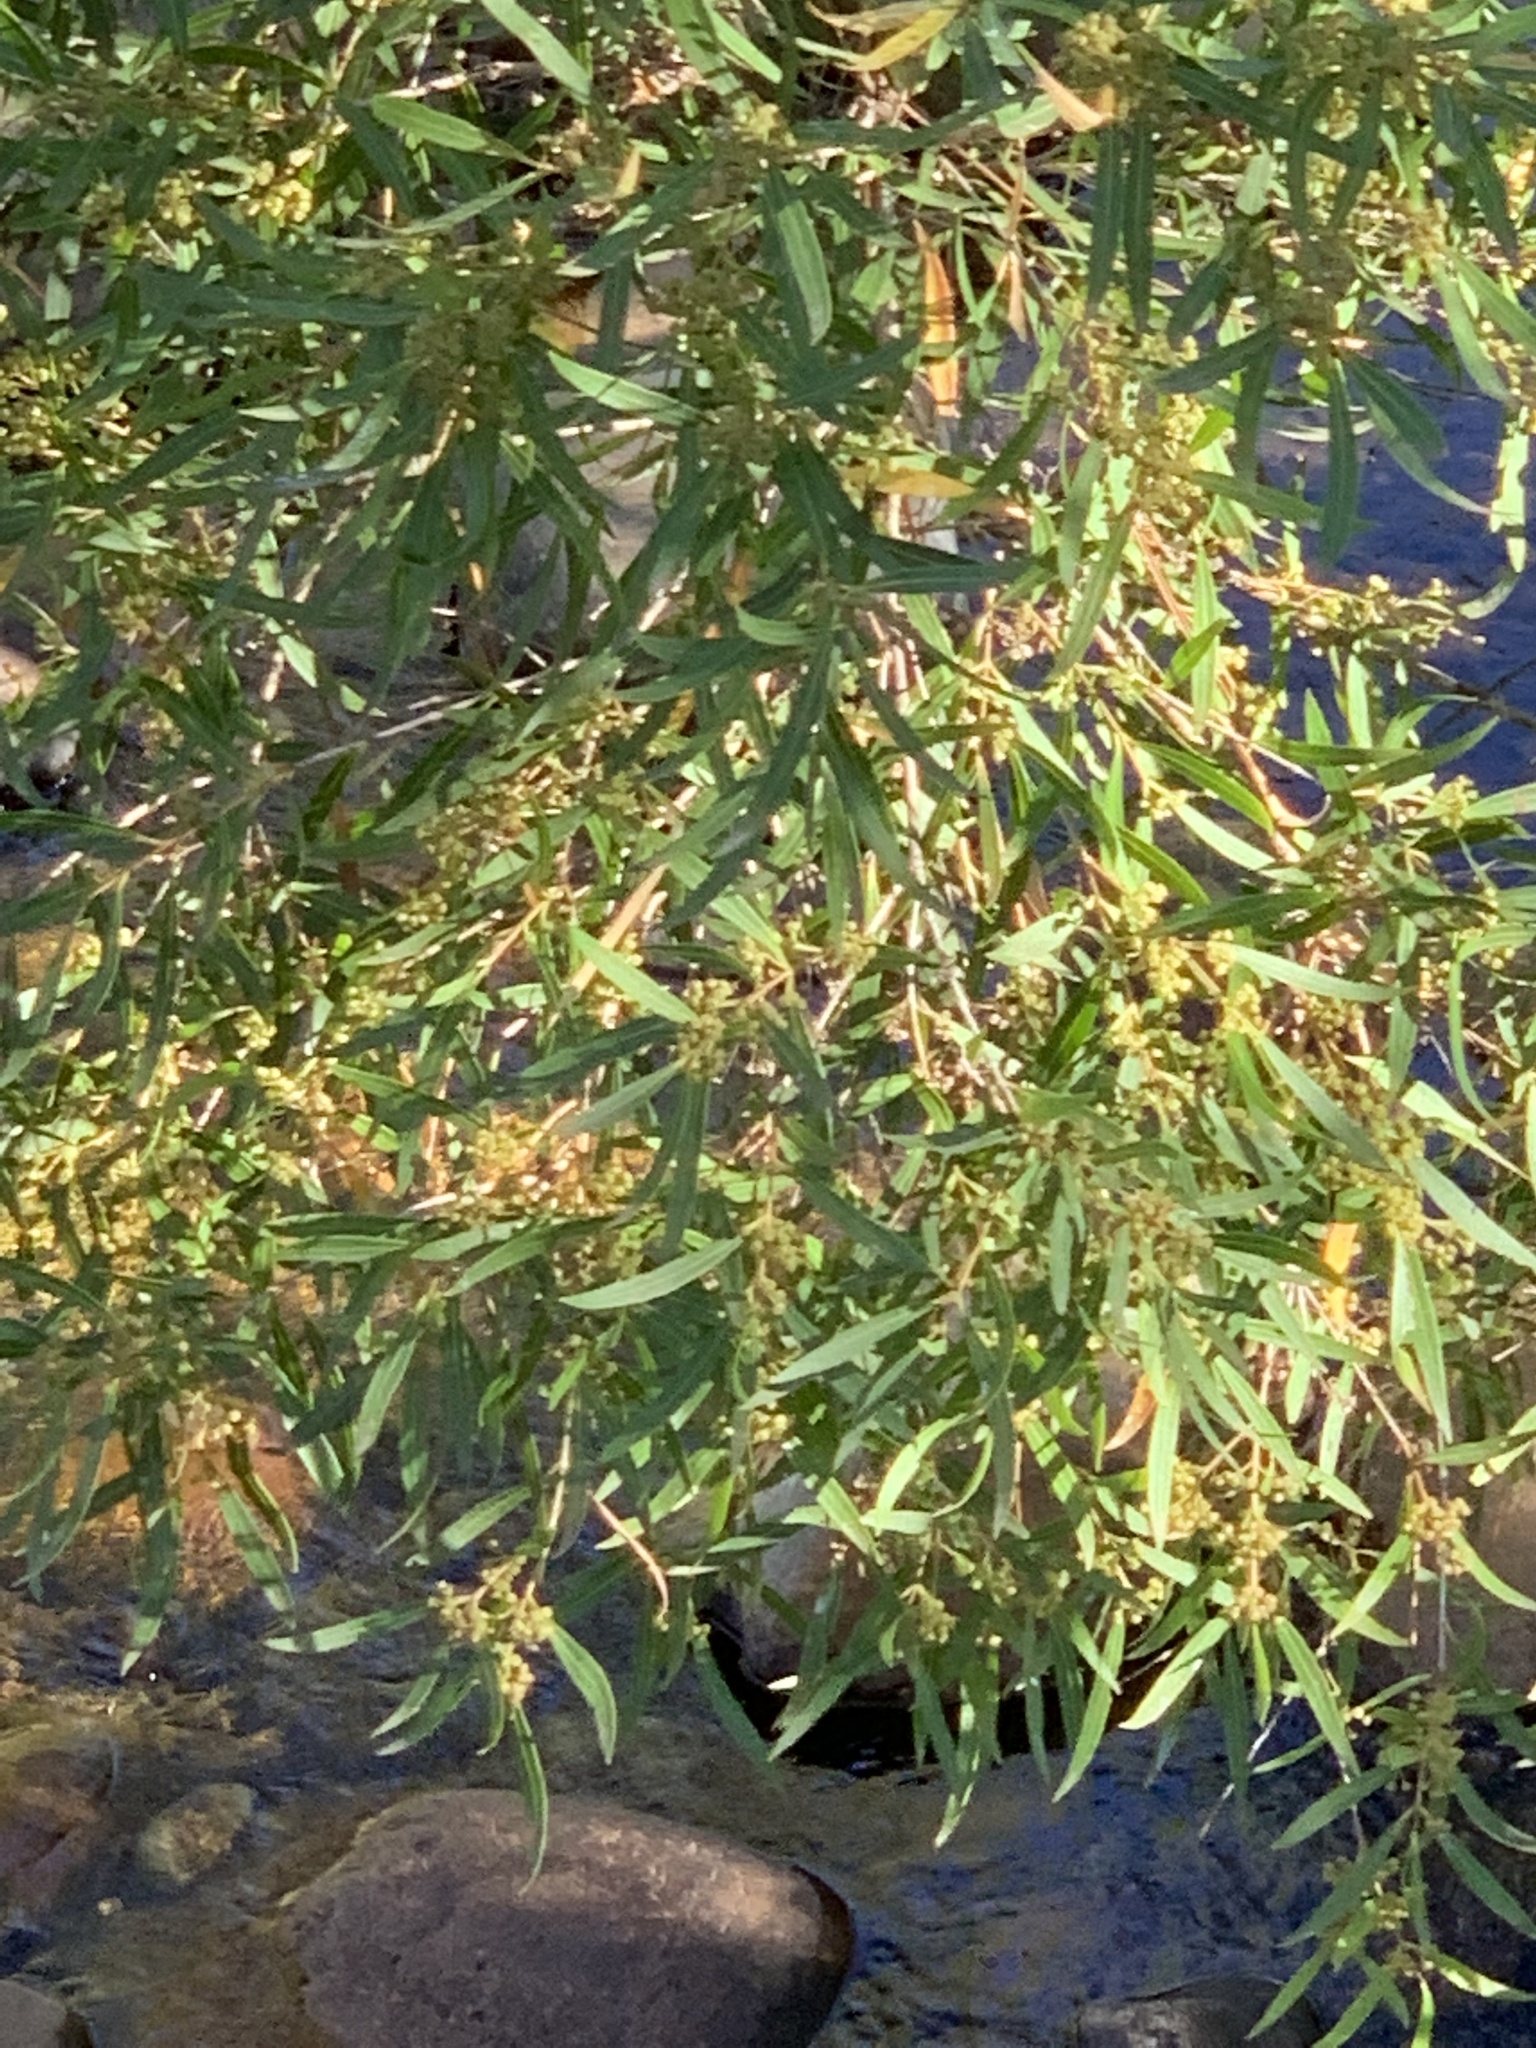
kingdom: Plantae
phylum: Tracheophyta
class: Magnoliopsida
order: Myrtales
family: Myrtaceae
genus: Callistemon
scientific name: Callistemon lanceolatus
